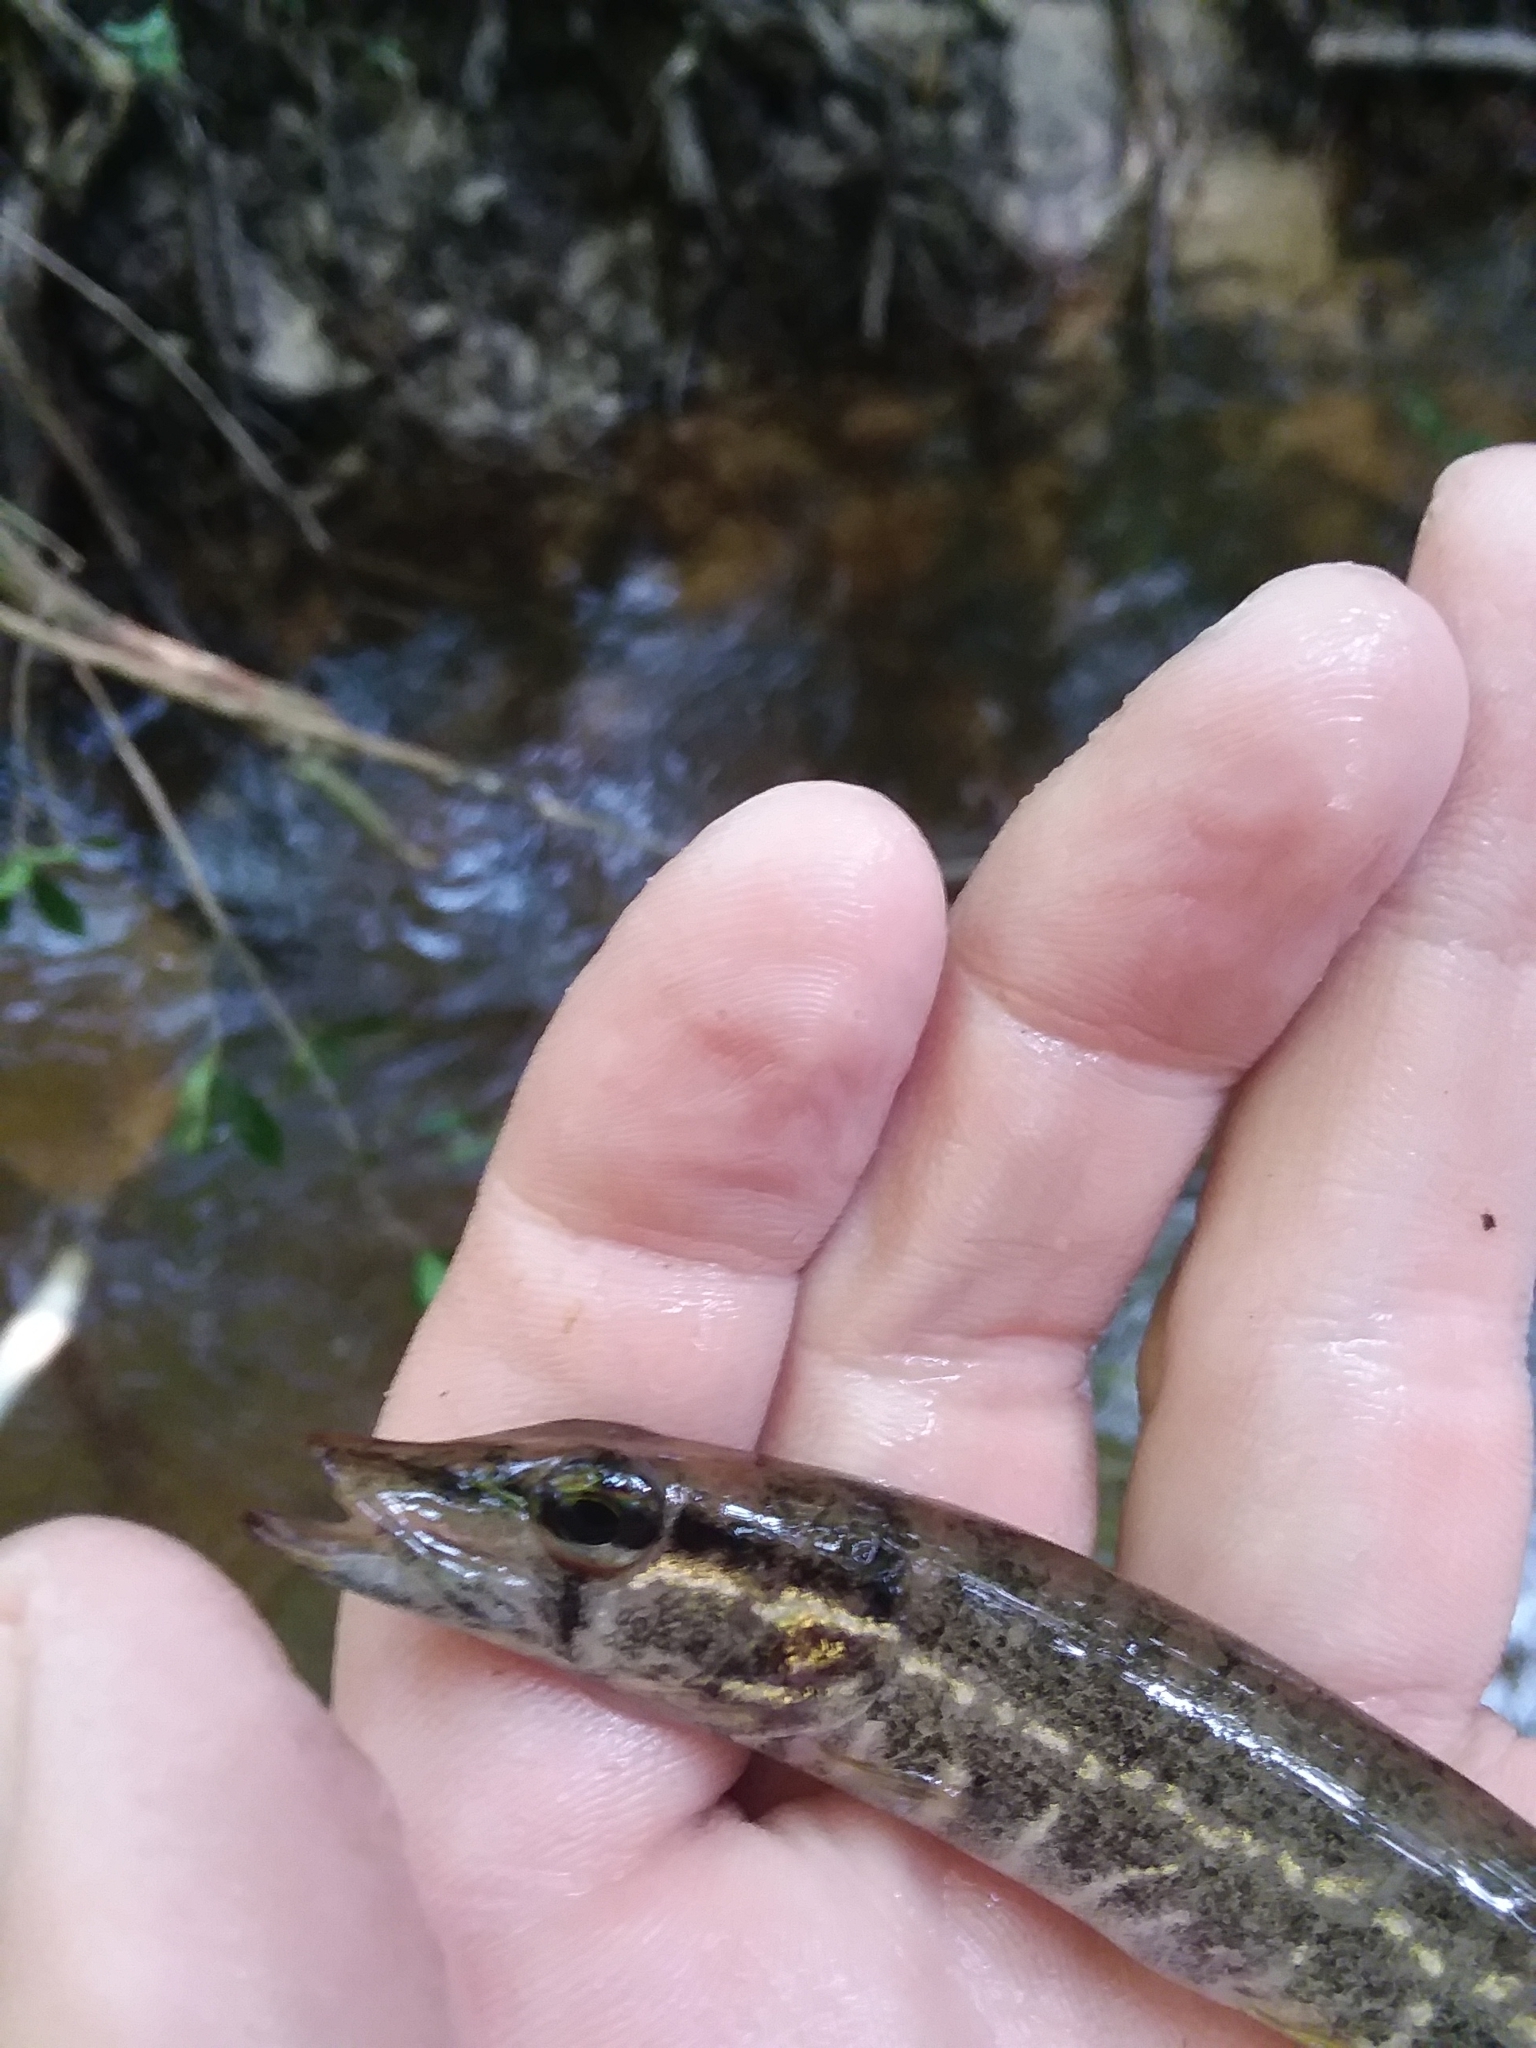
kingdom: Animalia
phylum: Chordata
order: Esociformes
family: Esocidae
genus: Esox
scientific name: Esox americanus
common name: Redfin pickerel
